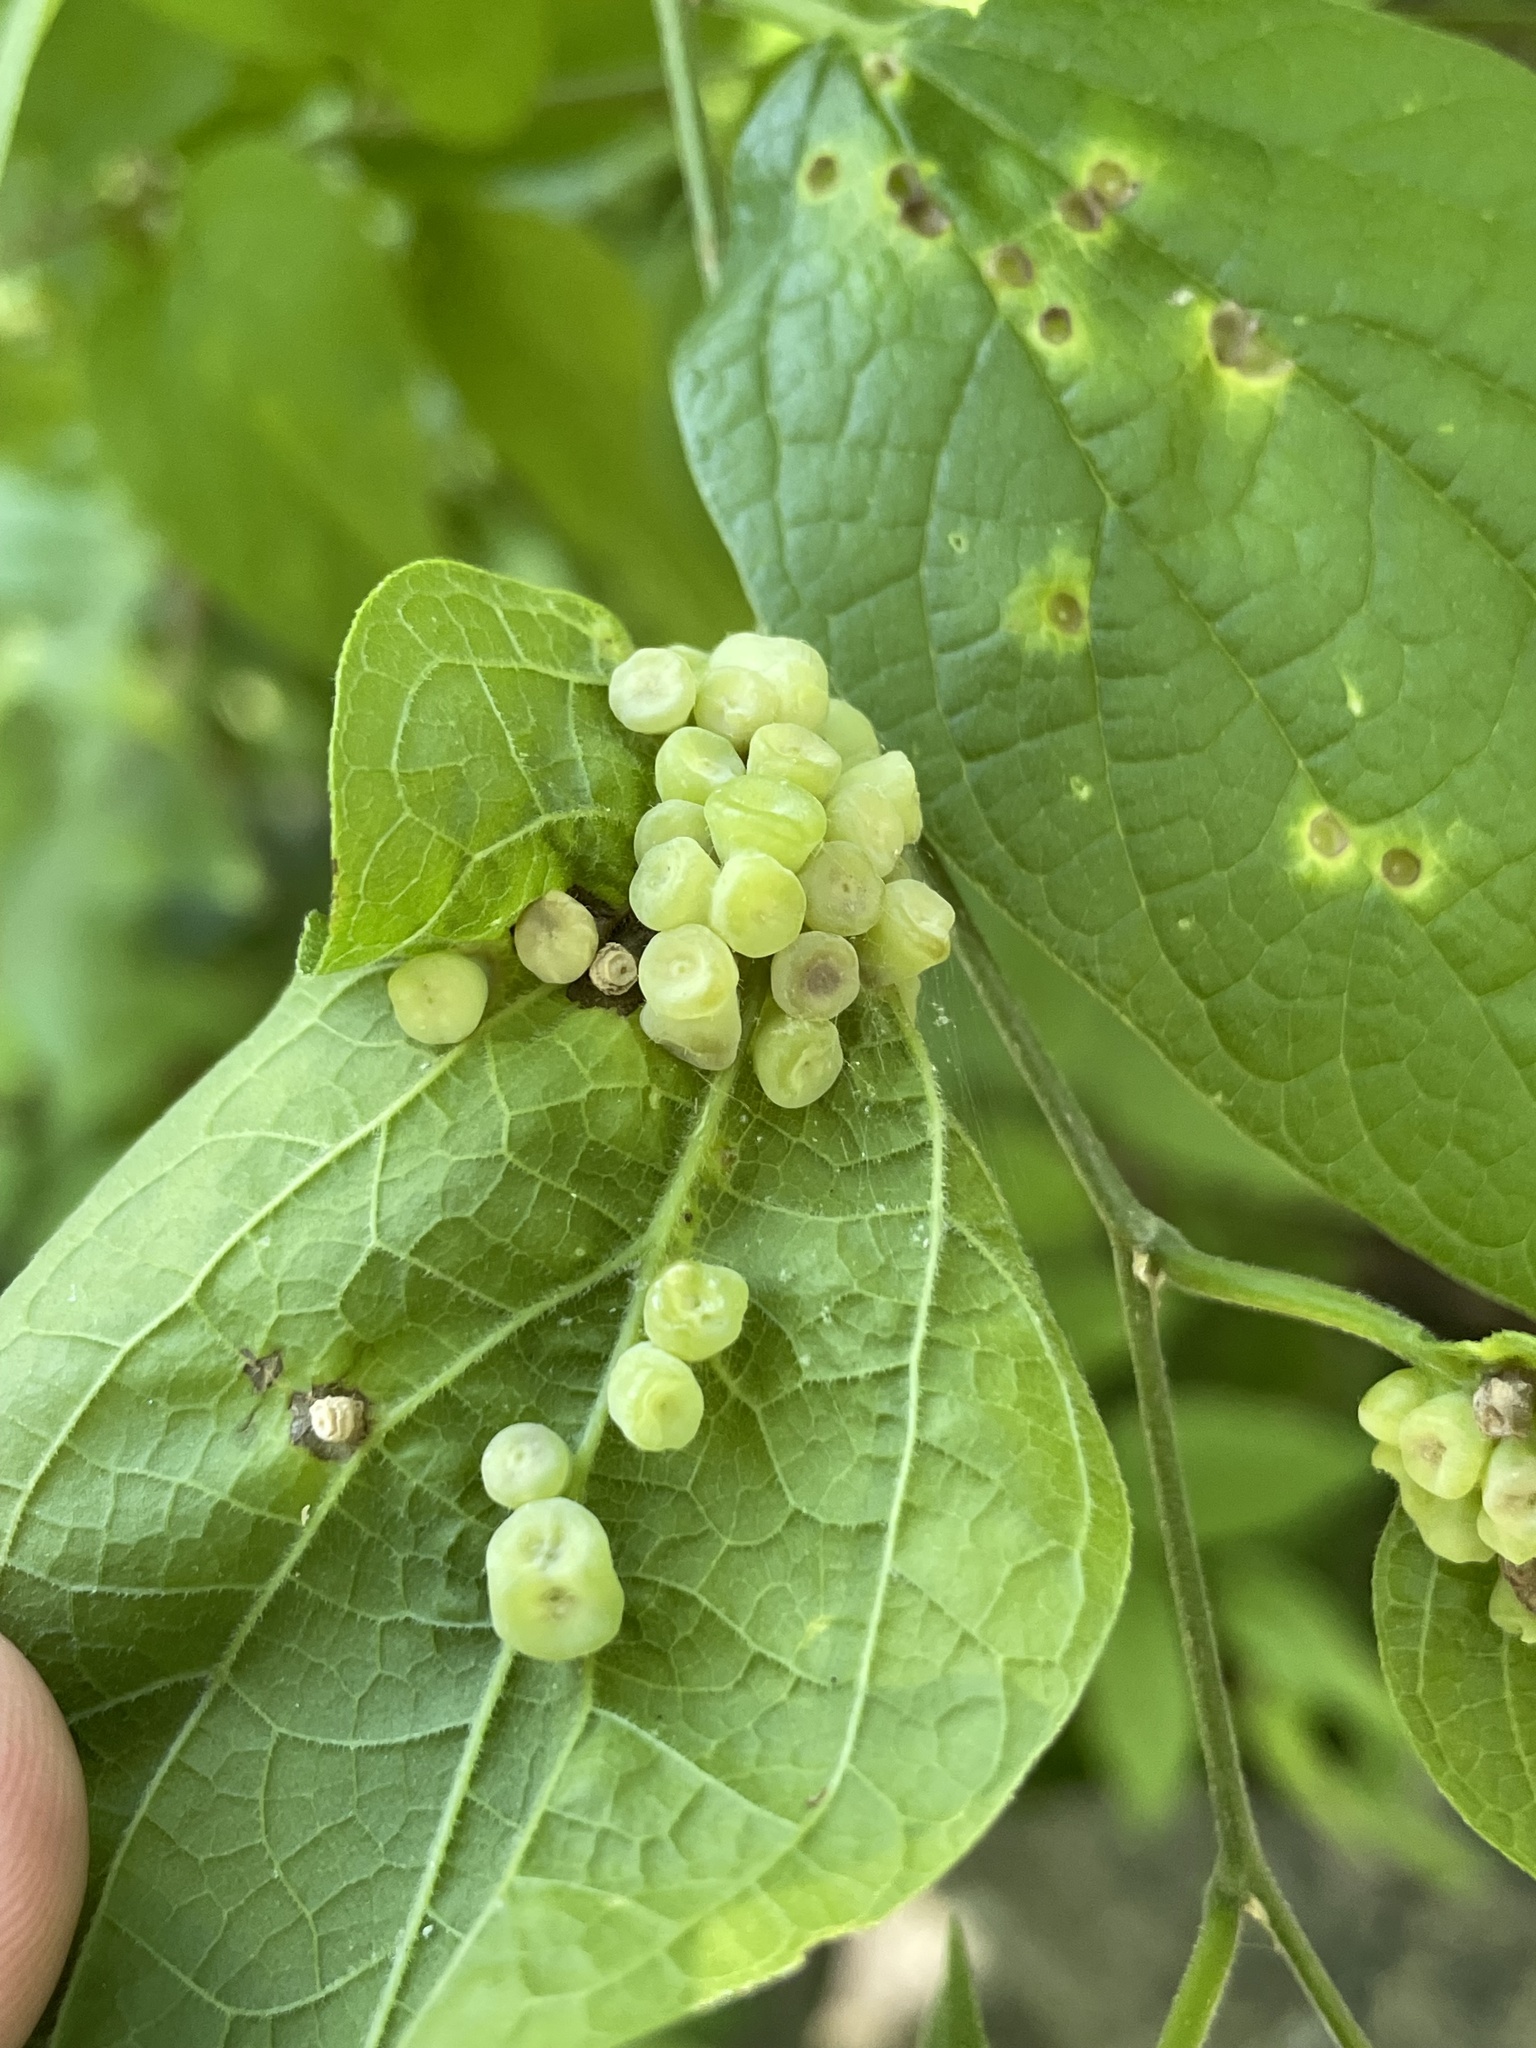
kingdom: Animalia
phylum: Arthropoda
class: Insecta
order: Hemiptera
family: Aphalaridae
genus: Pachypsylla
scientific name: Pachypsylla celtidismamma
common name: Hackberry nipplegall psyllid
